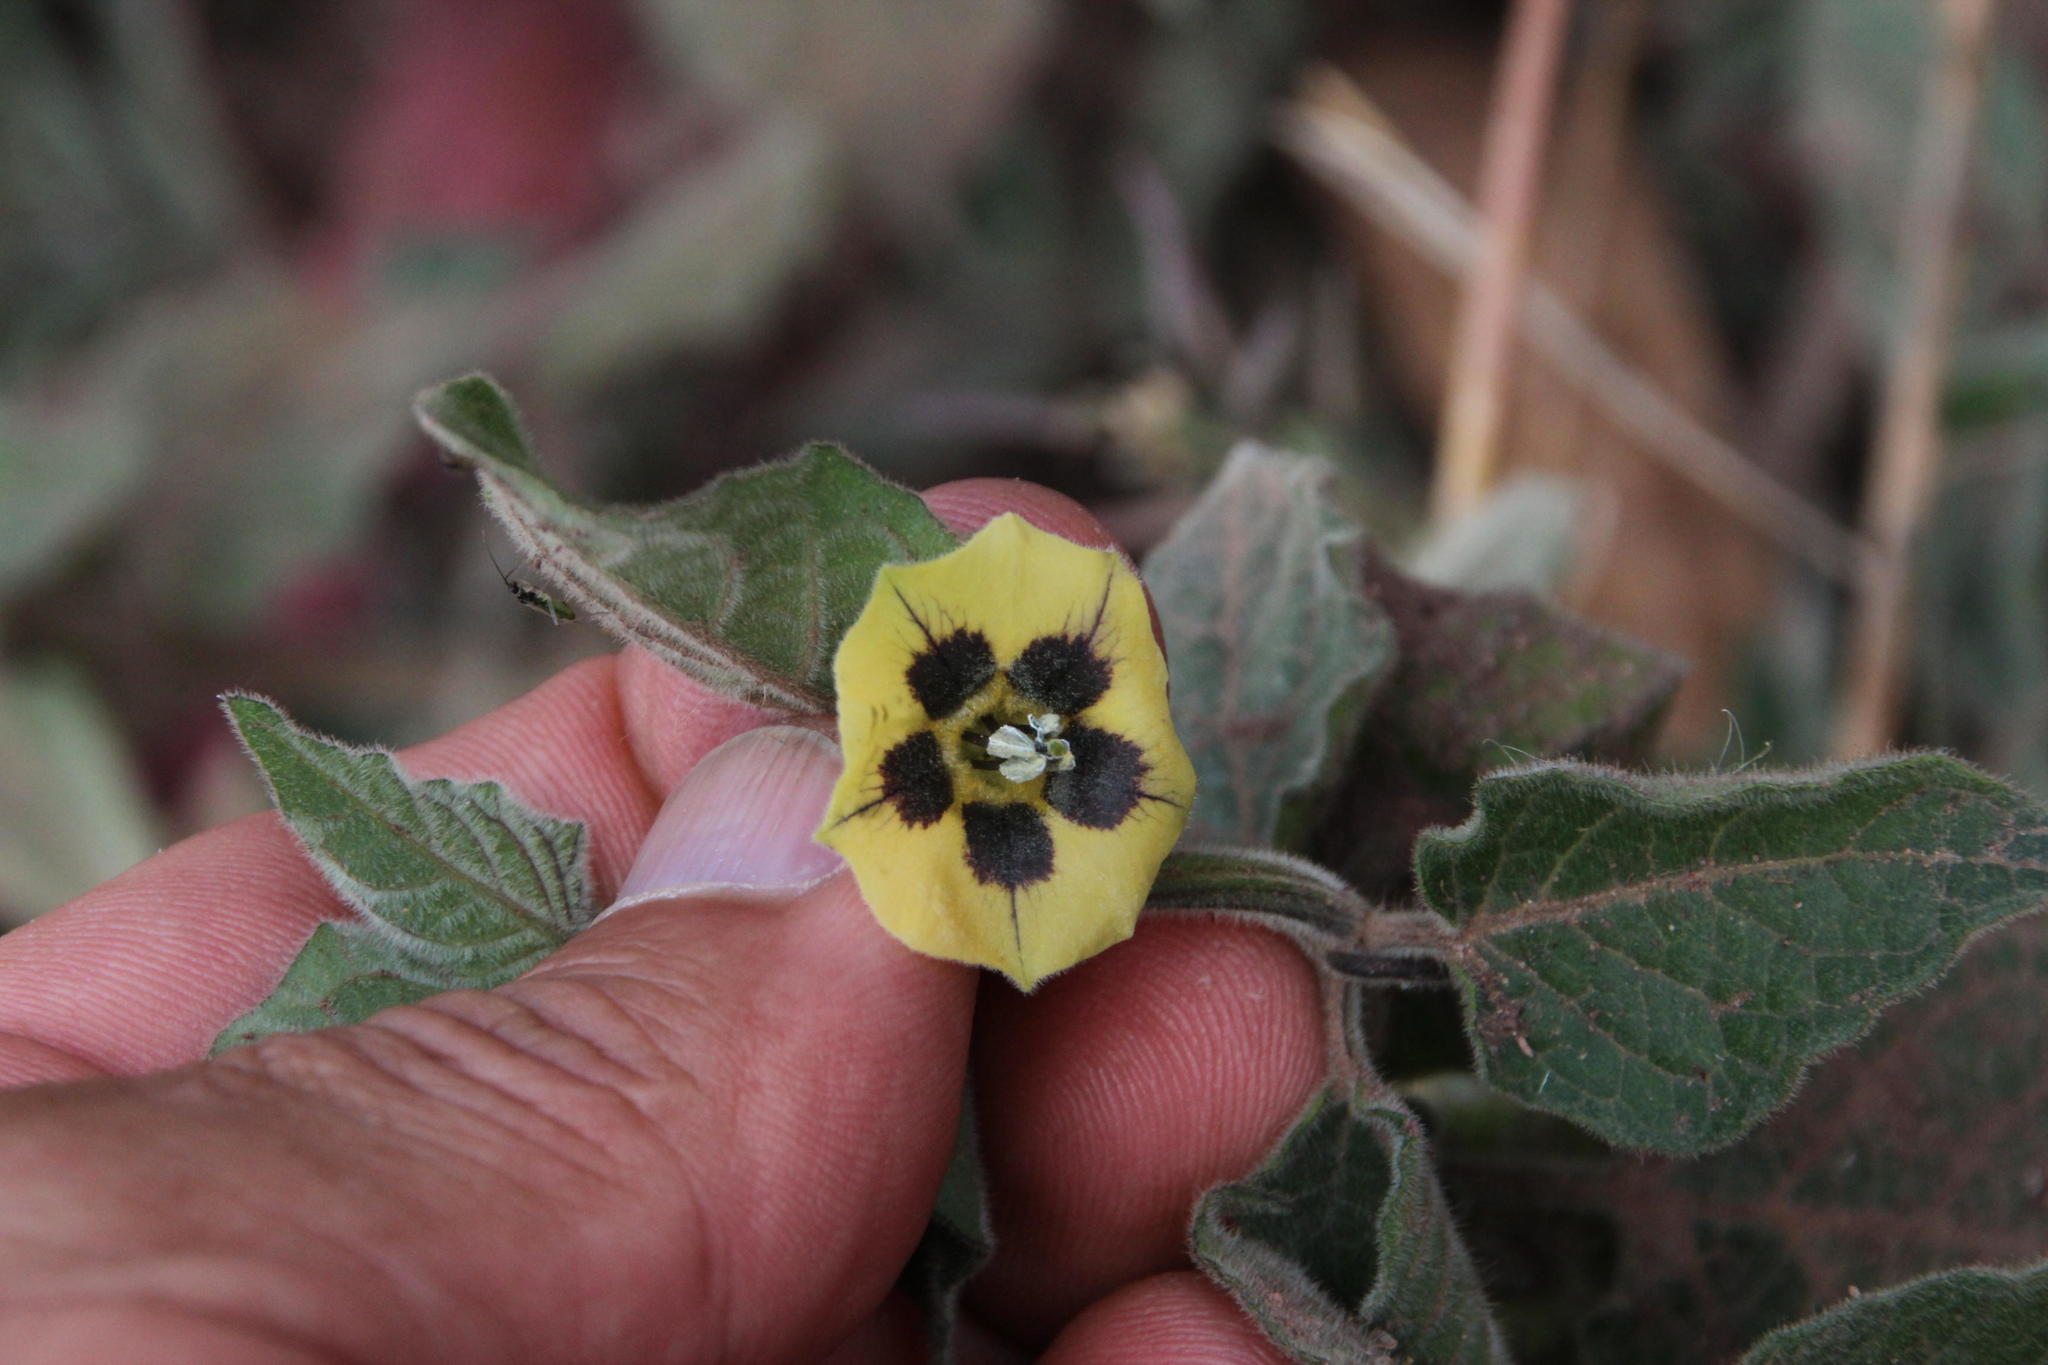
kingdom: Plantae
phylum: Tracheophyta
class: Magnoliopsida
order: Solanales
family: Solanaceae
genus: Physalis
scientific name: Physalis peruviana
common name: Cape-gooseberry
